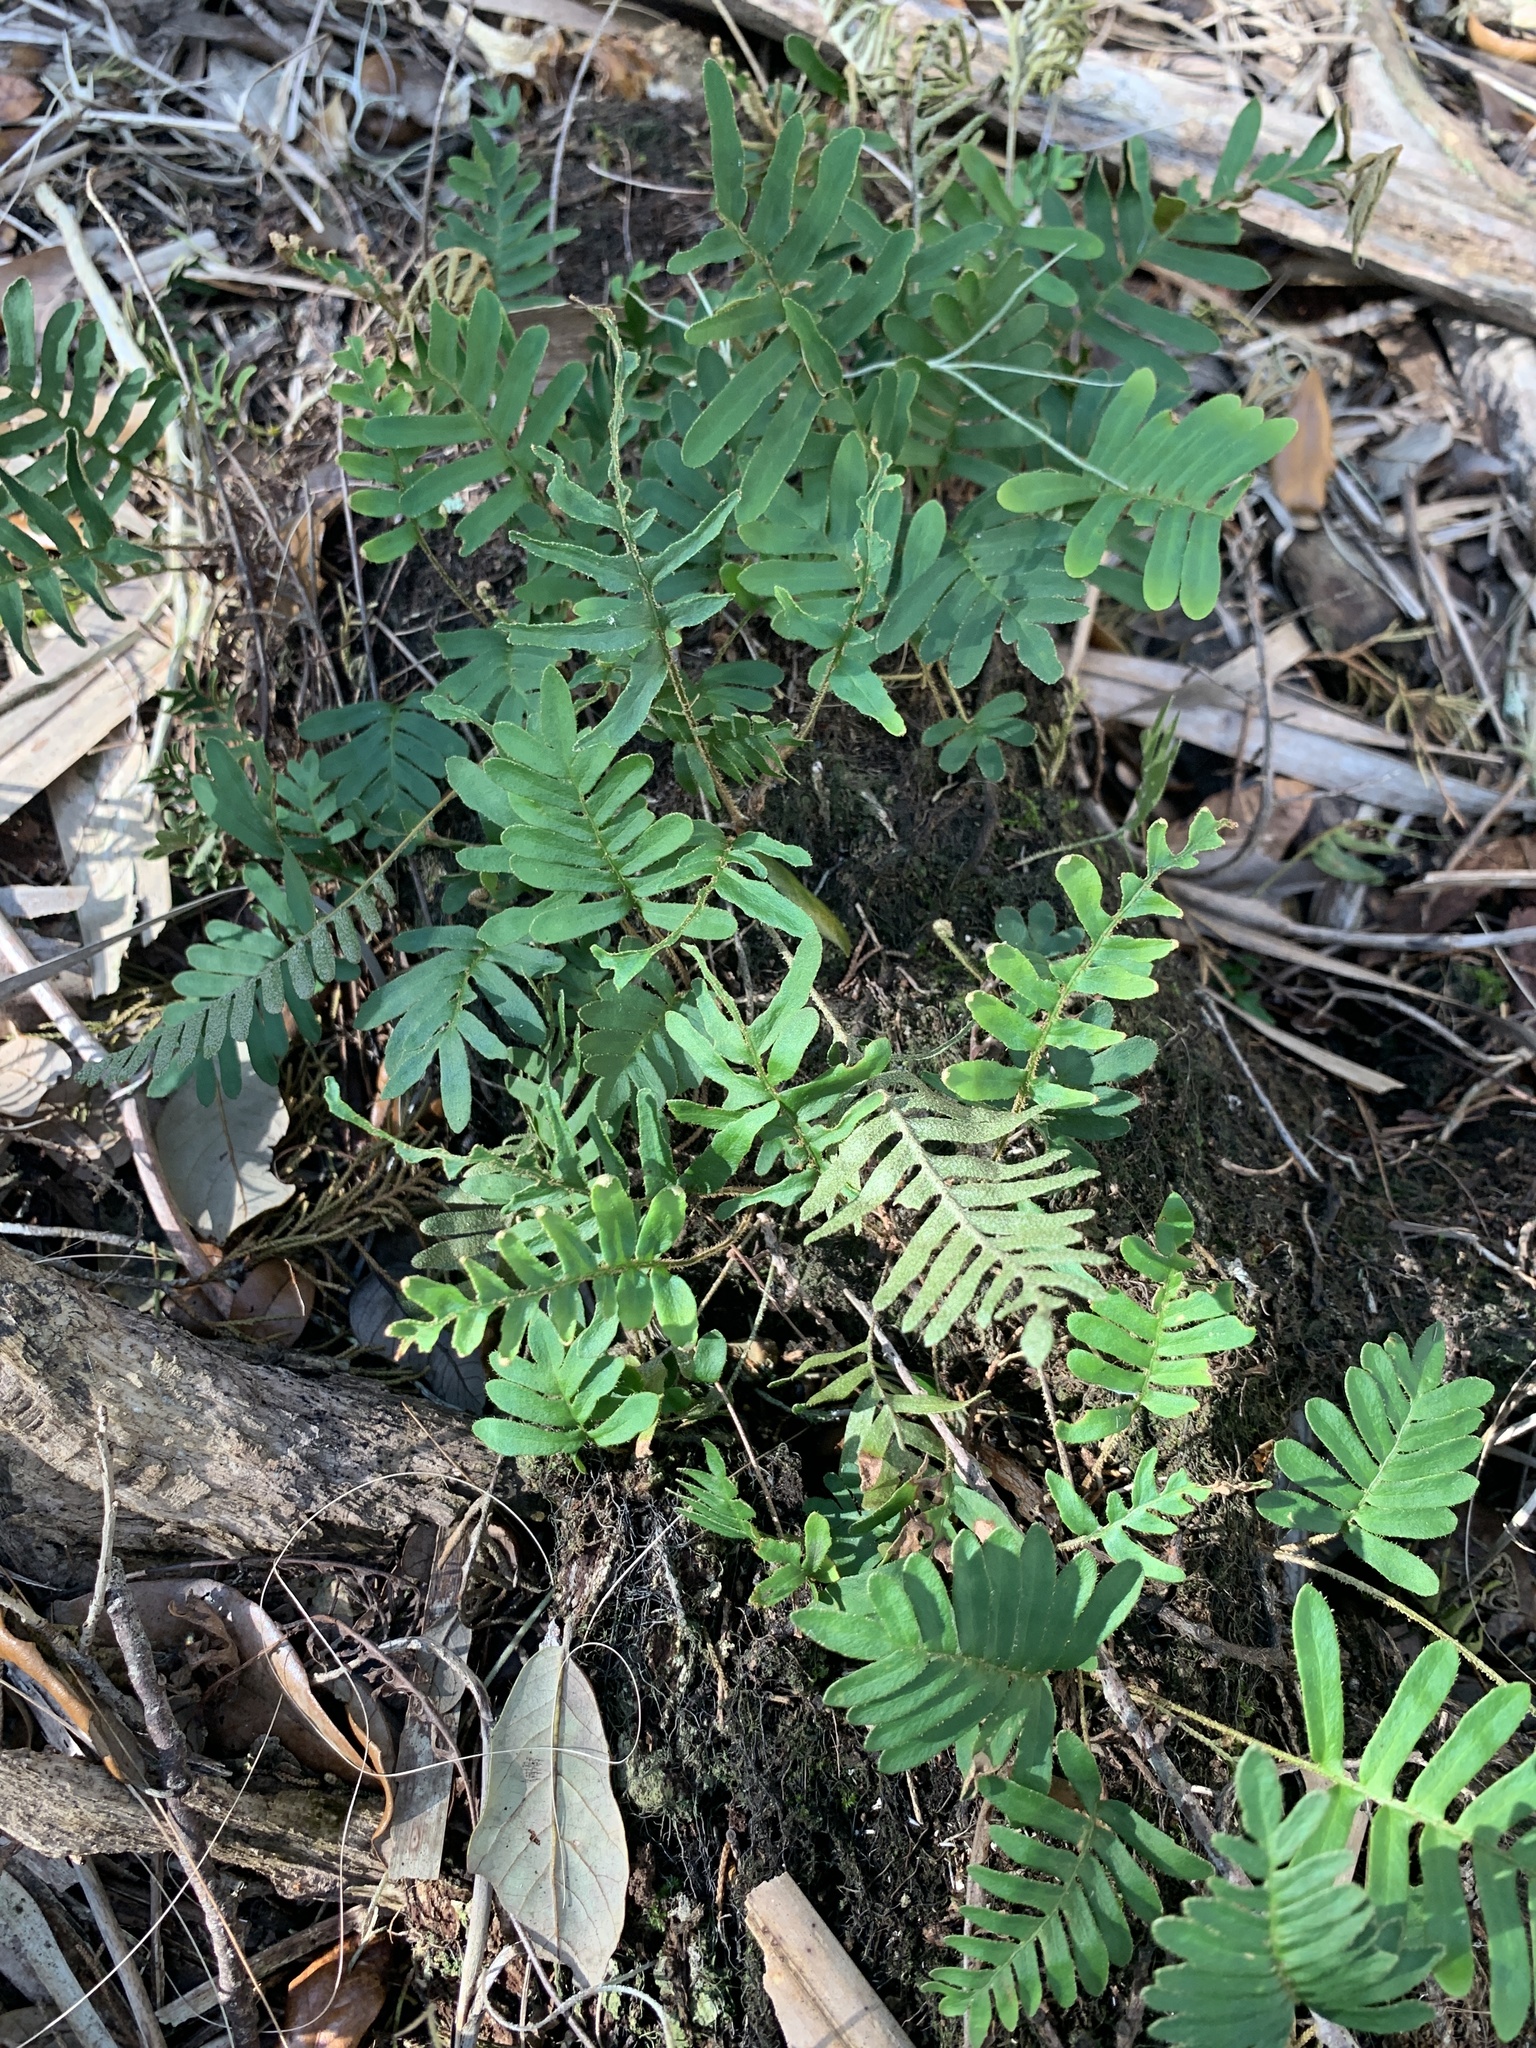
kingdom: Plantae
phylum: Tracheophyta
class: Polypodiopsida
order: Polypodiales
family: Polypodiaceae
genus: Pleopeltis
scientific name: Pleopeltis michauxiana
